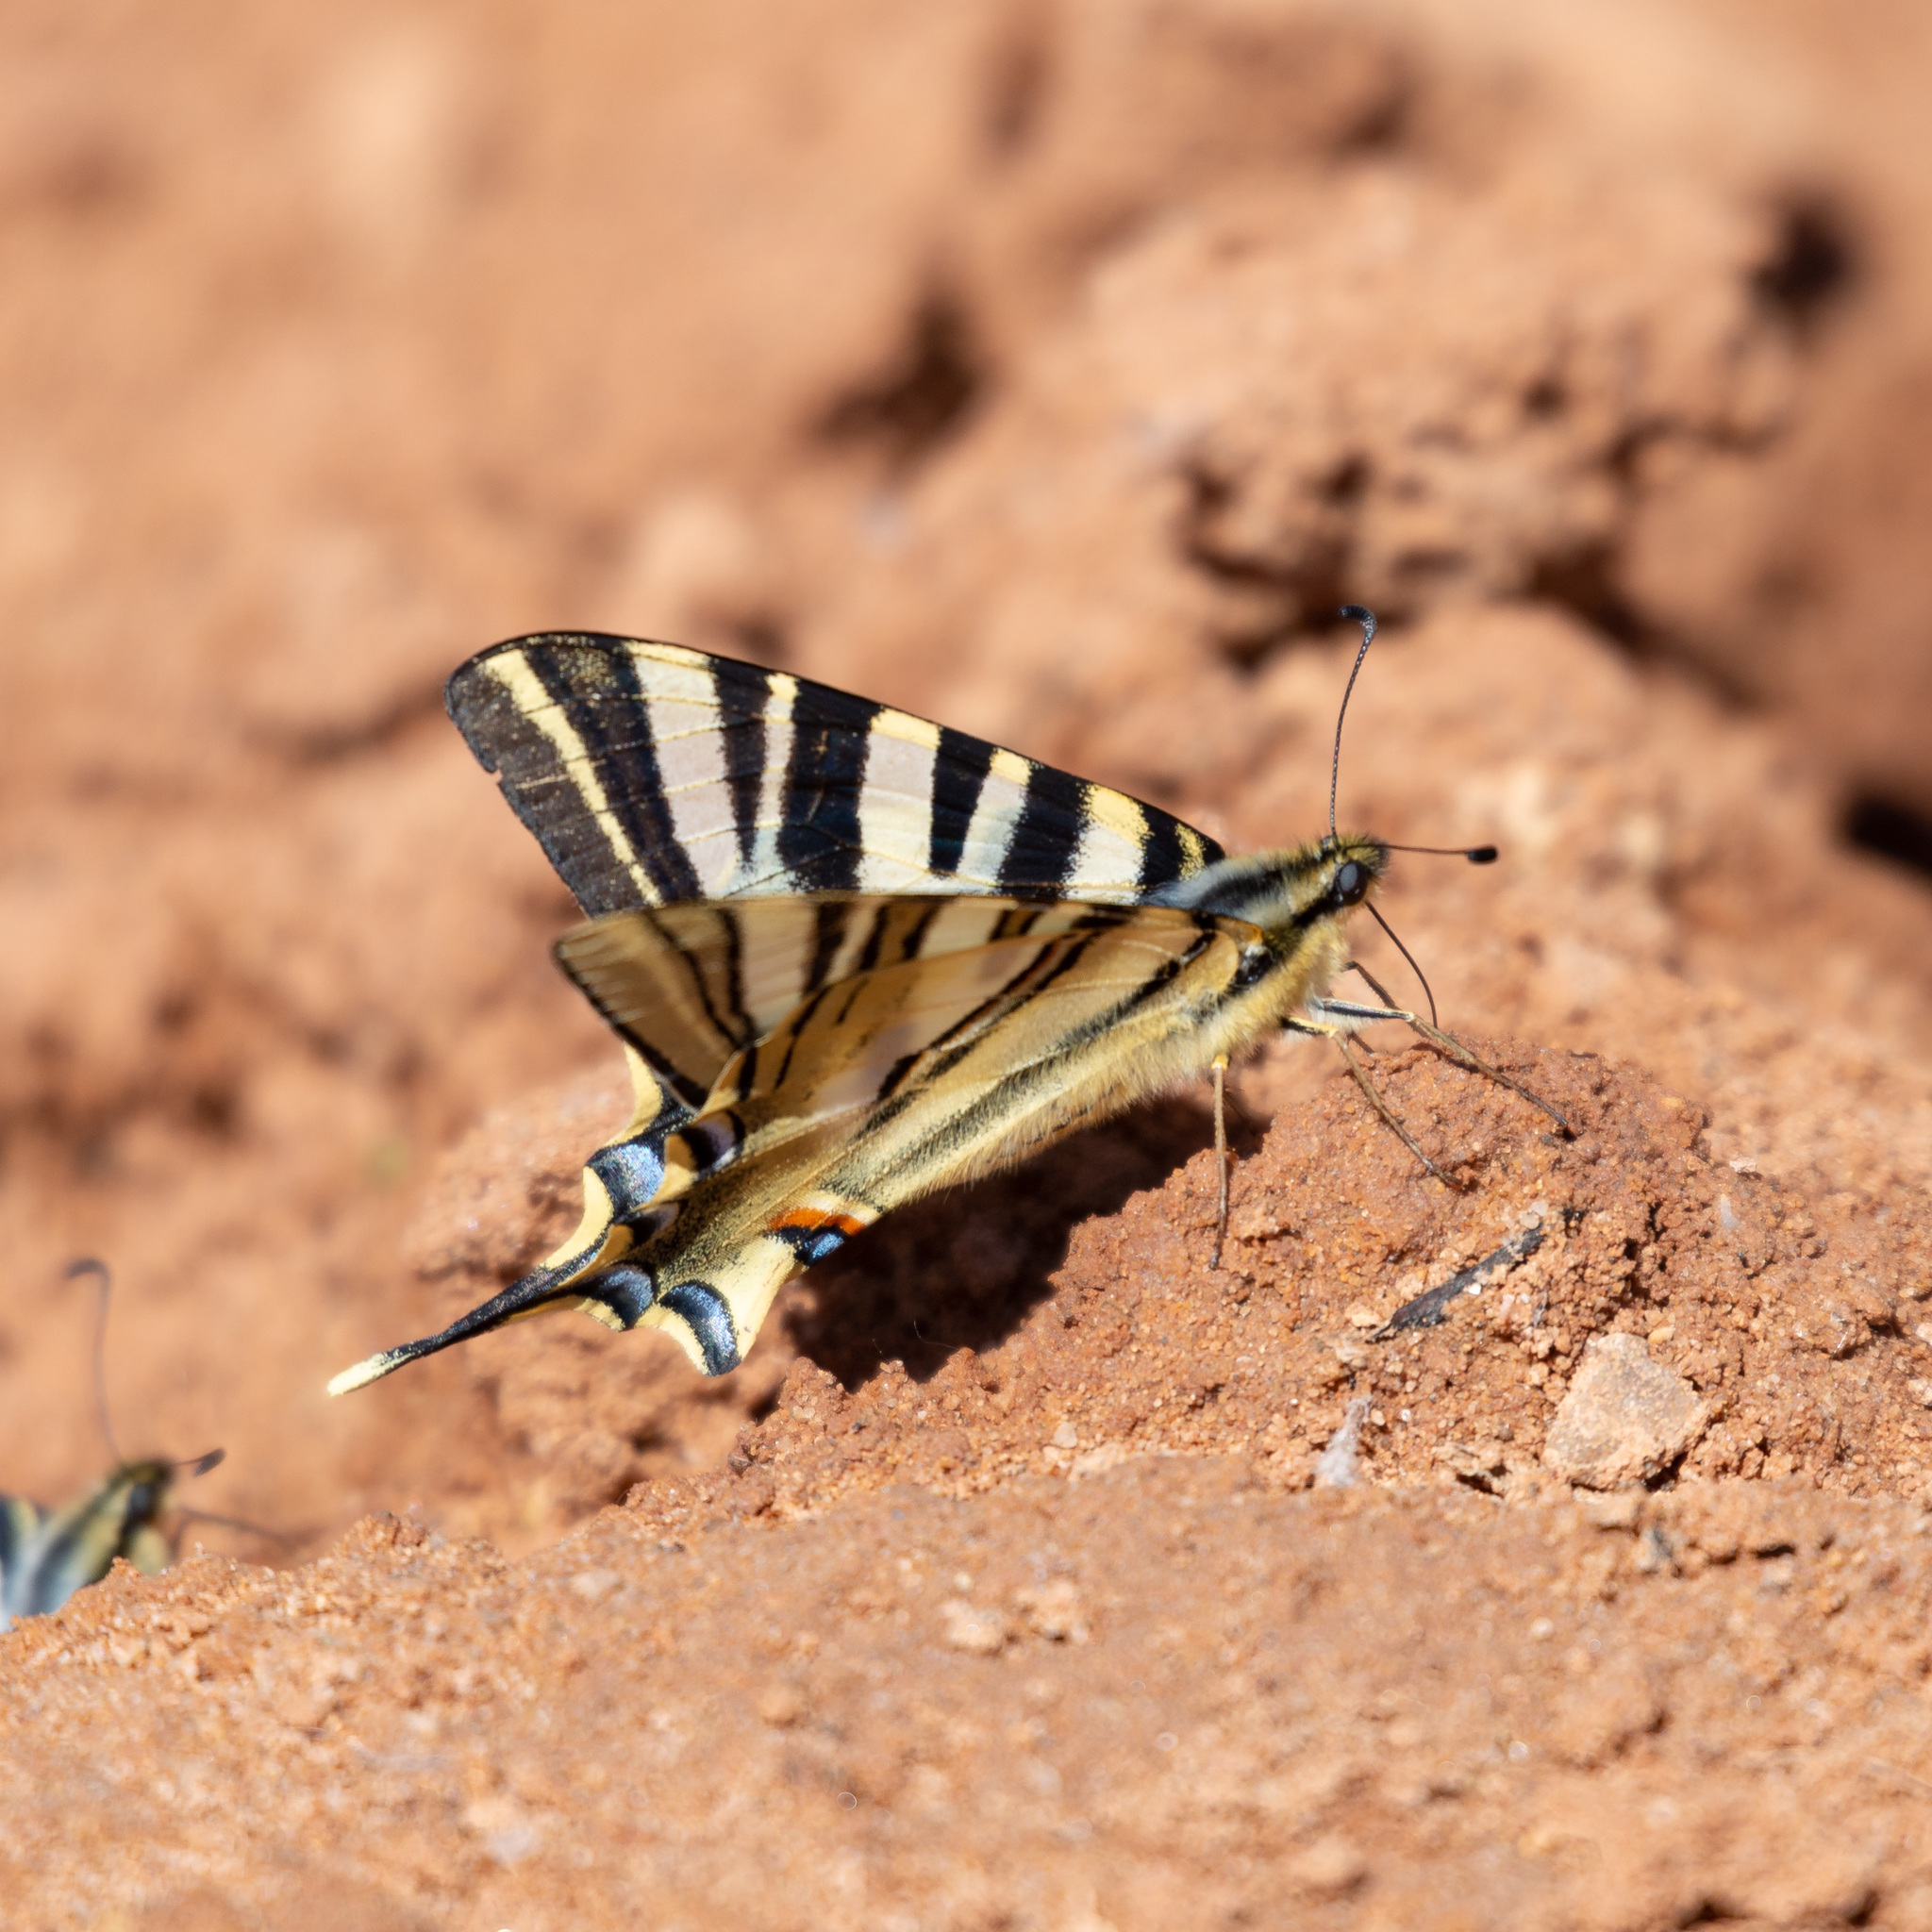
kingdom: Animalia
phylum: Arthropoda
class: Insecta
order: Lepidoptera
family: Papilionidae
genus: Iphiclides
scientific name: Iphiclides feisthamelii
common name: Iberian scarce swallowtail
